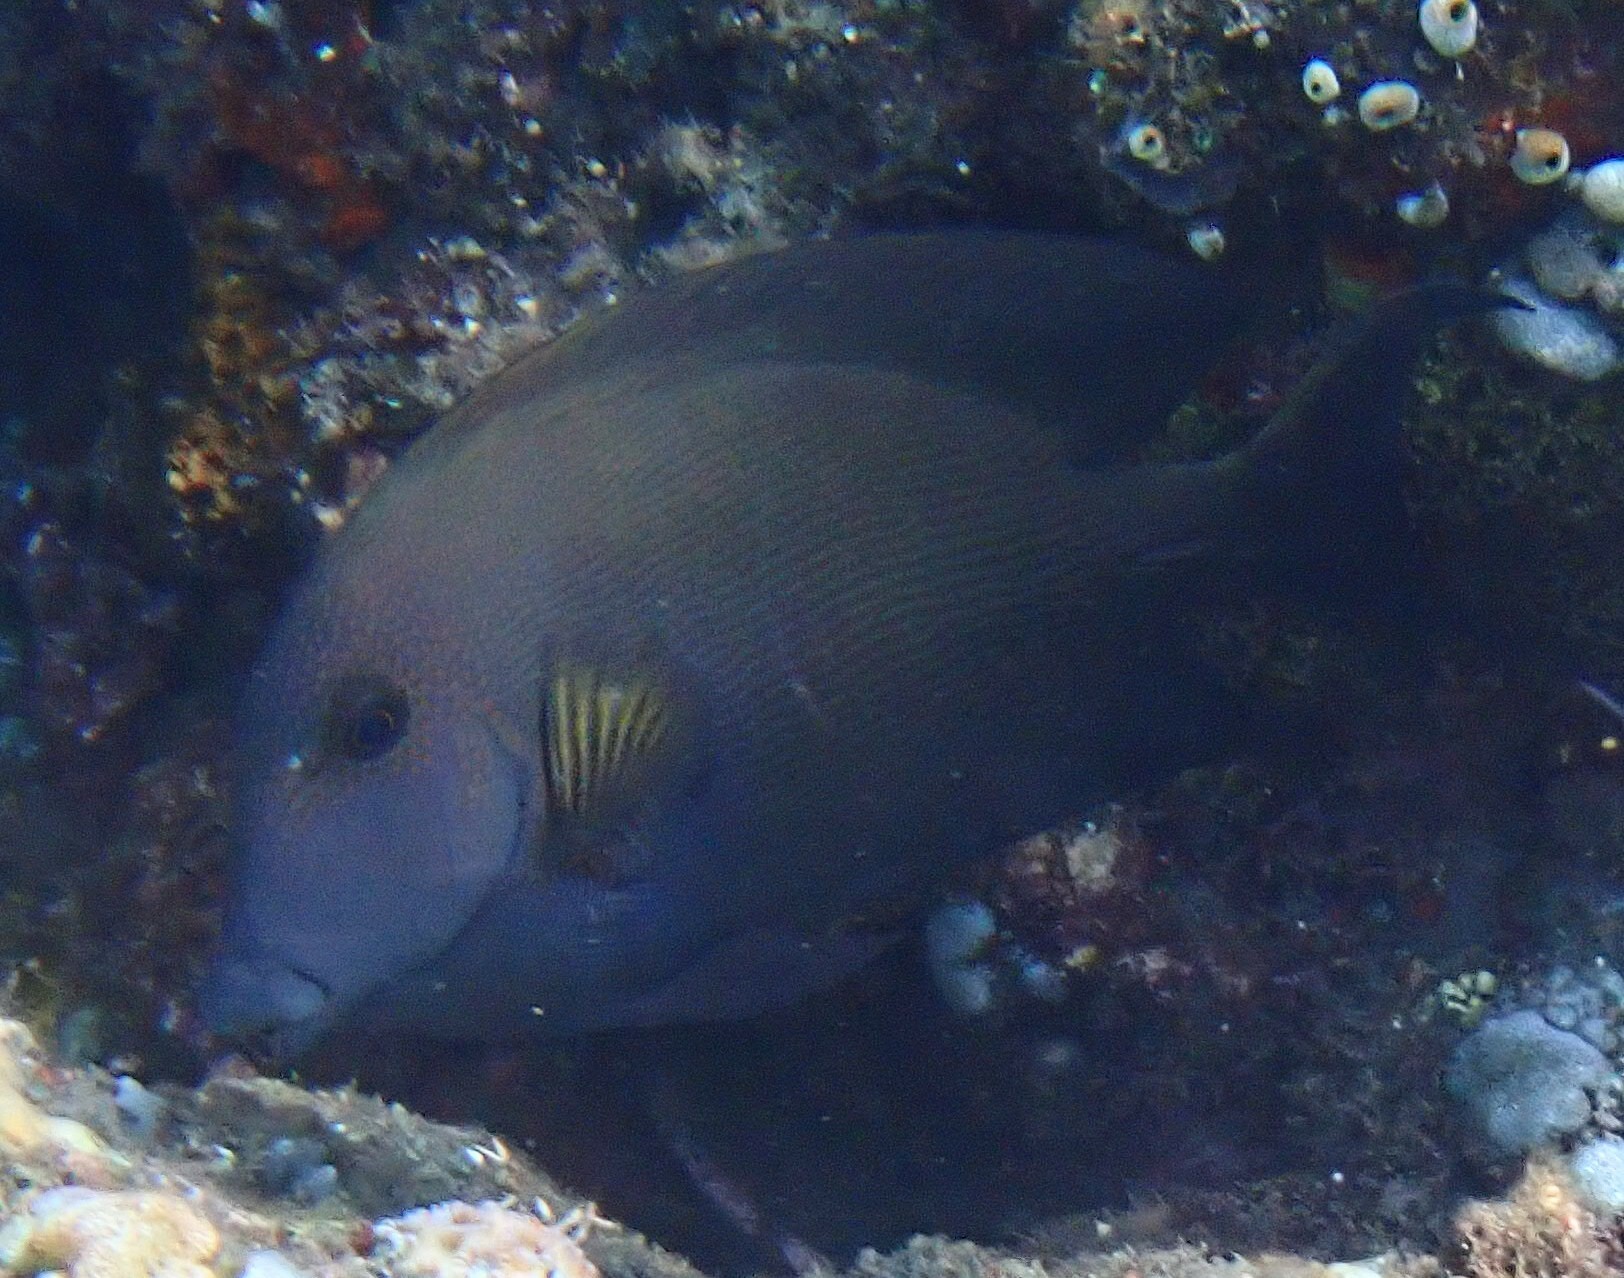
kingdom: Animalia
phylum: Chordata
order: Perciformes
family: Acanthuridae
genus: Ctenochaetus
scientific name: Ctenochaetus striatus
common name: Bristle-toothed surgeonfish
